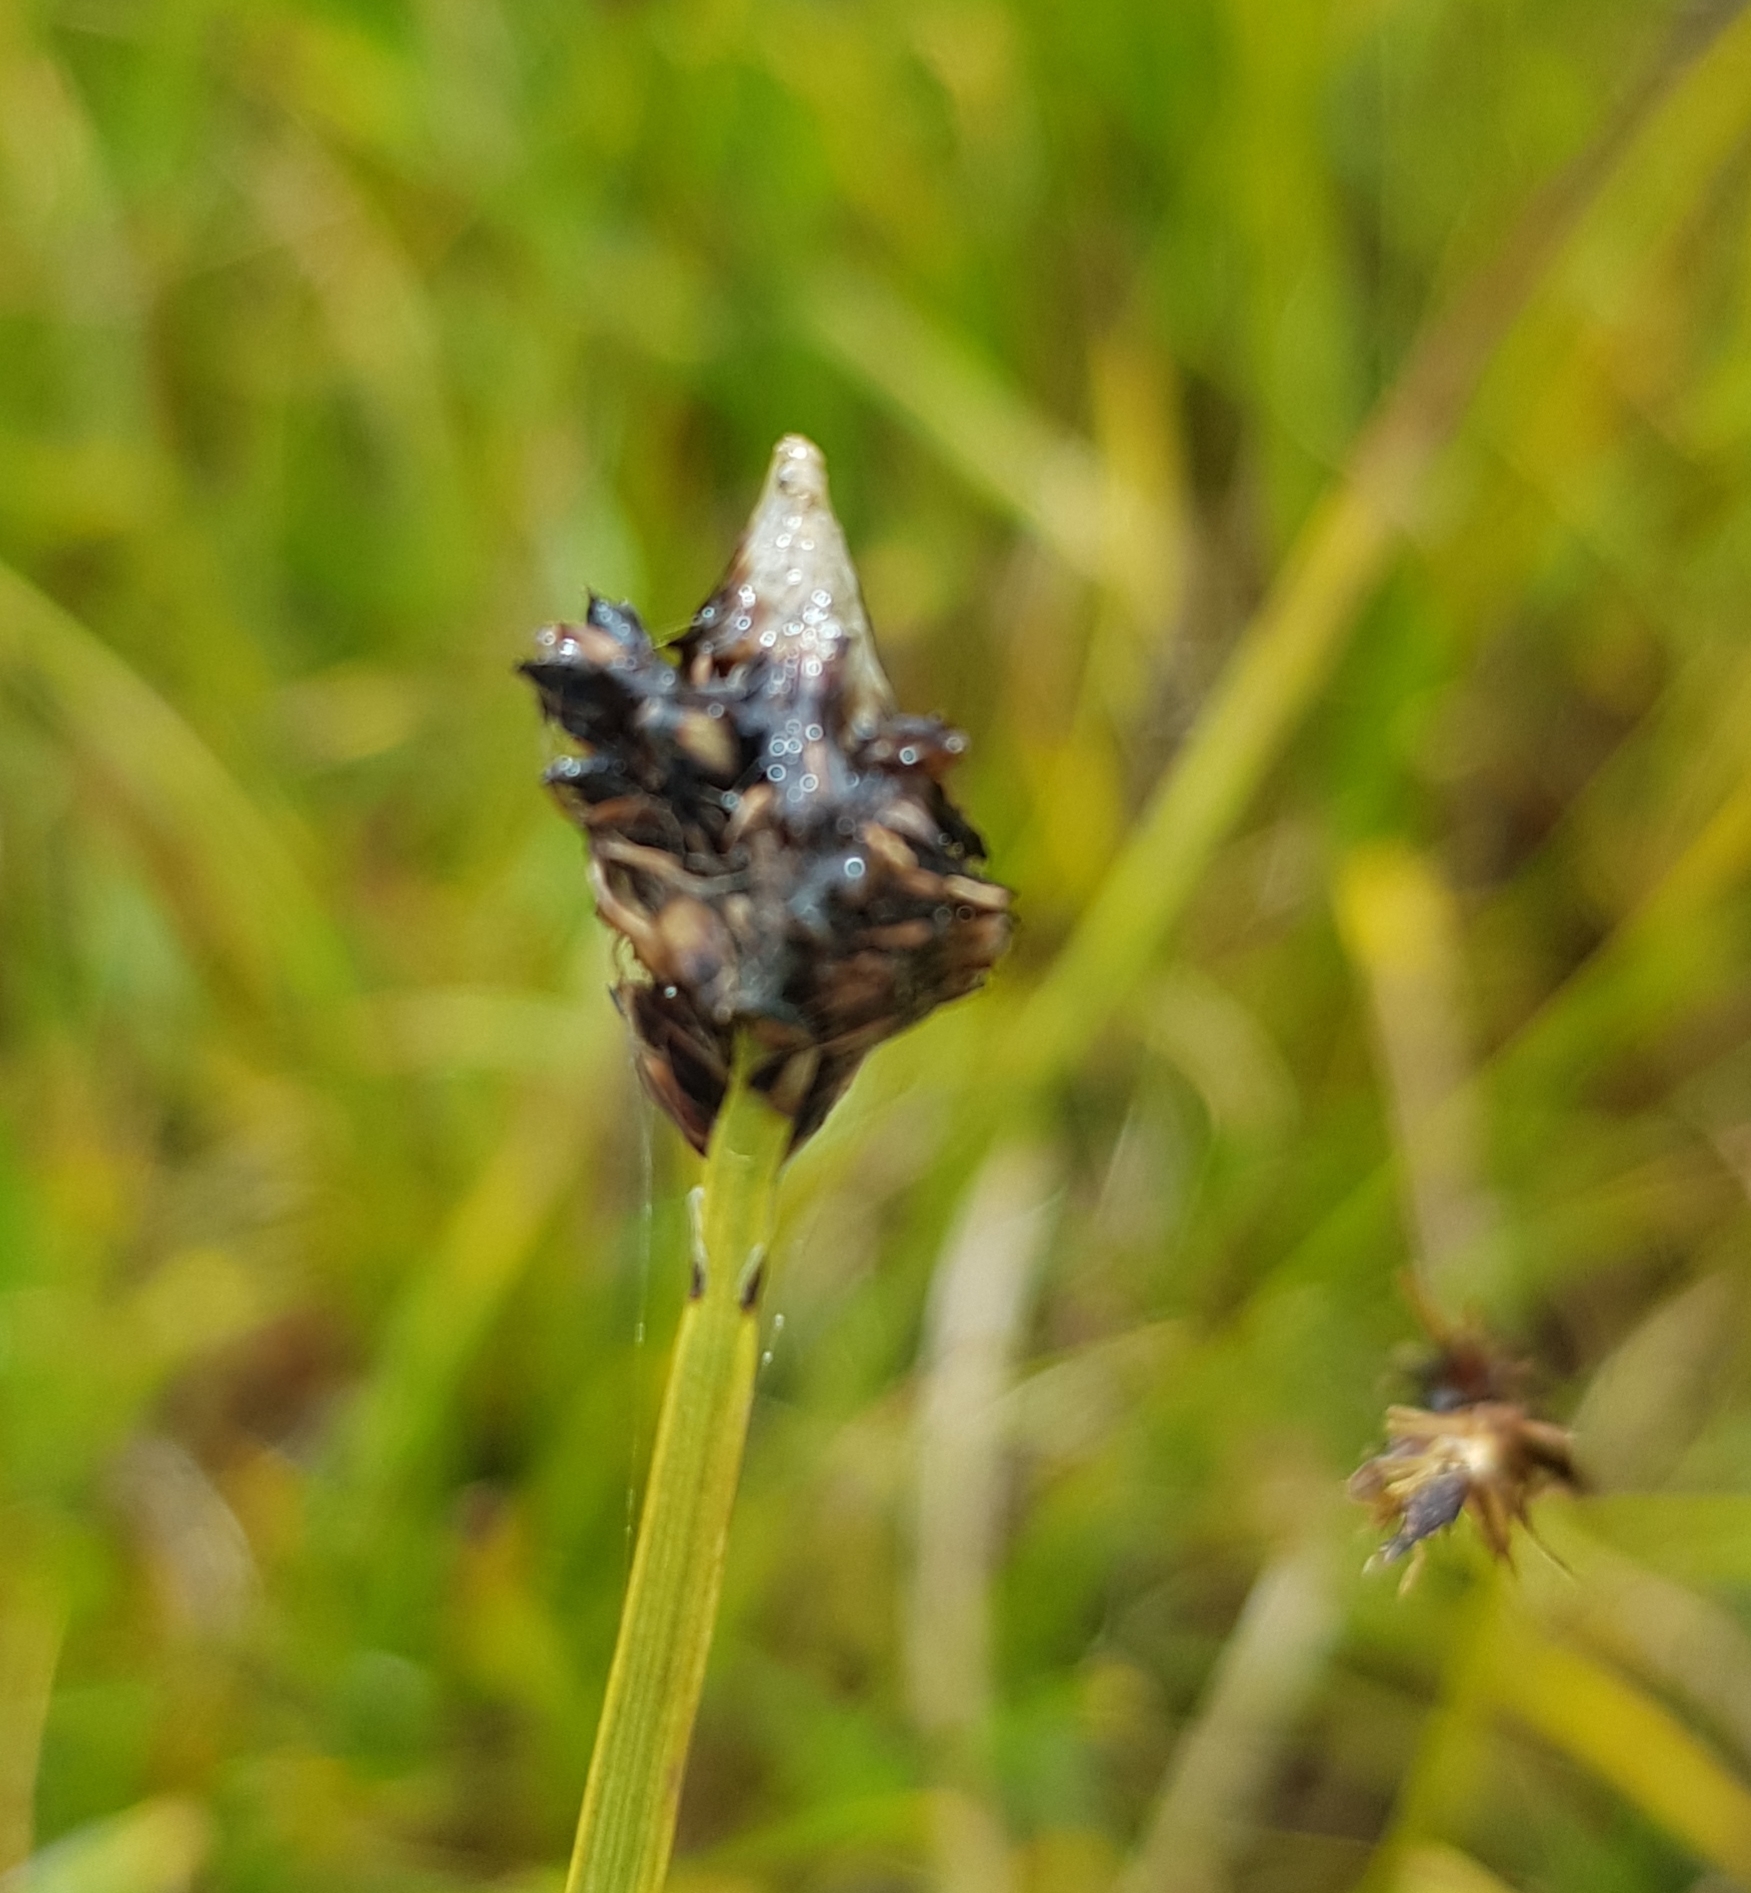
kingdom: Plantae
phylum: Tracheophyta
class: Liliopsida
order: Poales
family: Cyperaceae
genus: Carex
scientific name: Carex simpliciuscula
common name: Simple bog sedge
